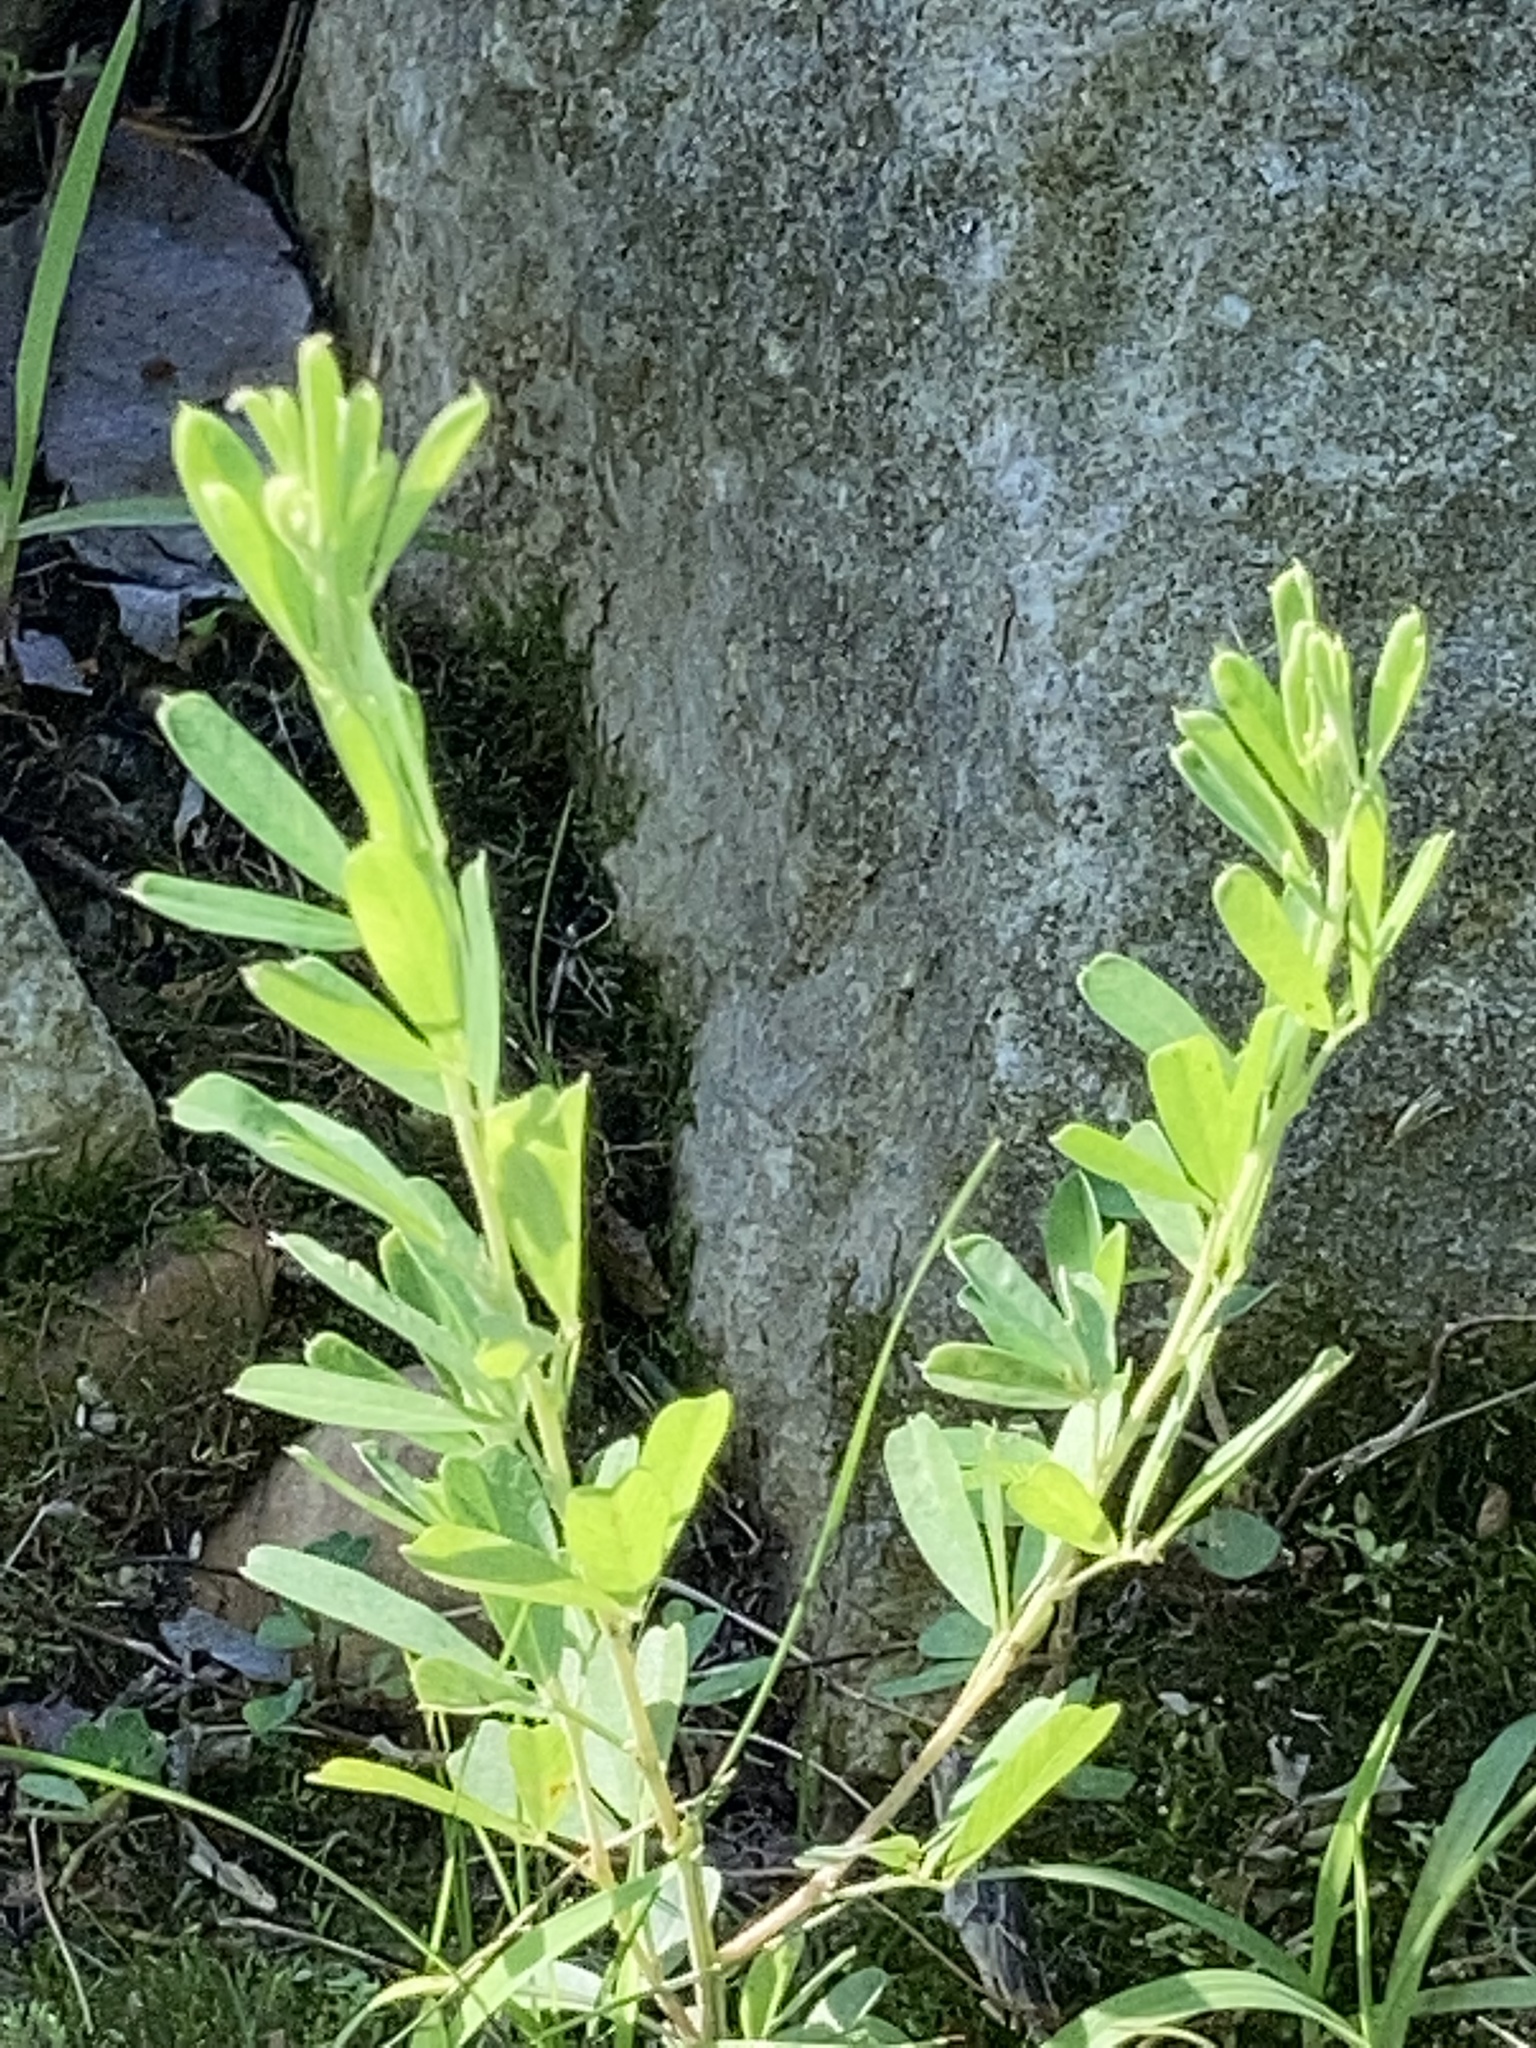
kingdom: Plantae
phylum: Tracheophyta
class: Magnoliopsida
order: Fabales
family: Fabaceae
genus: Lespedeza
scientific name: Lespedeza cuneata
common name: Chinese bush-clover
